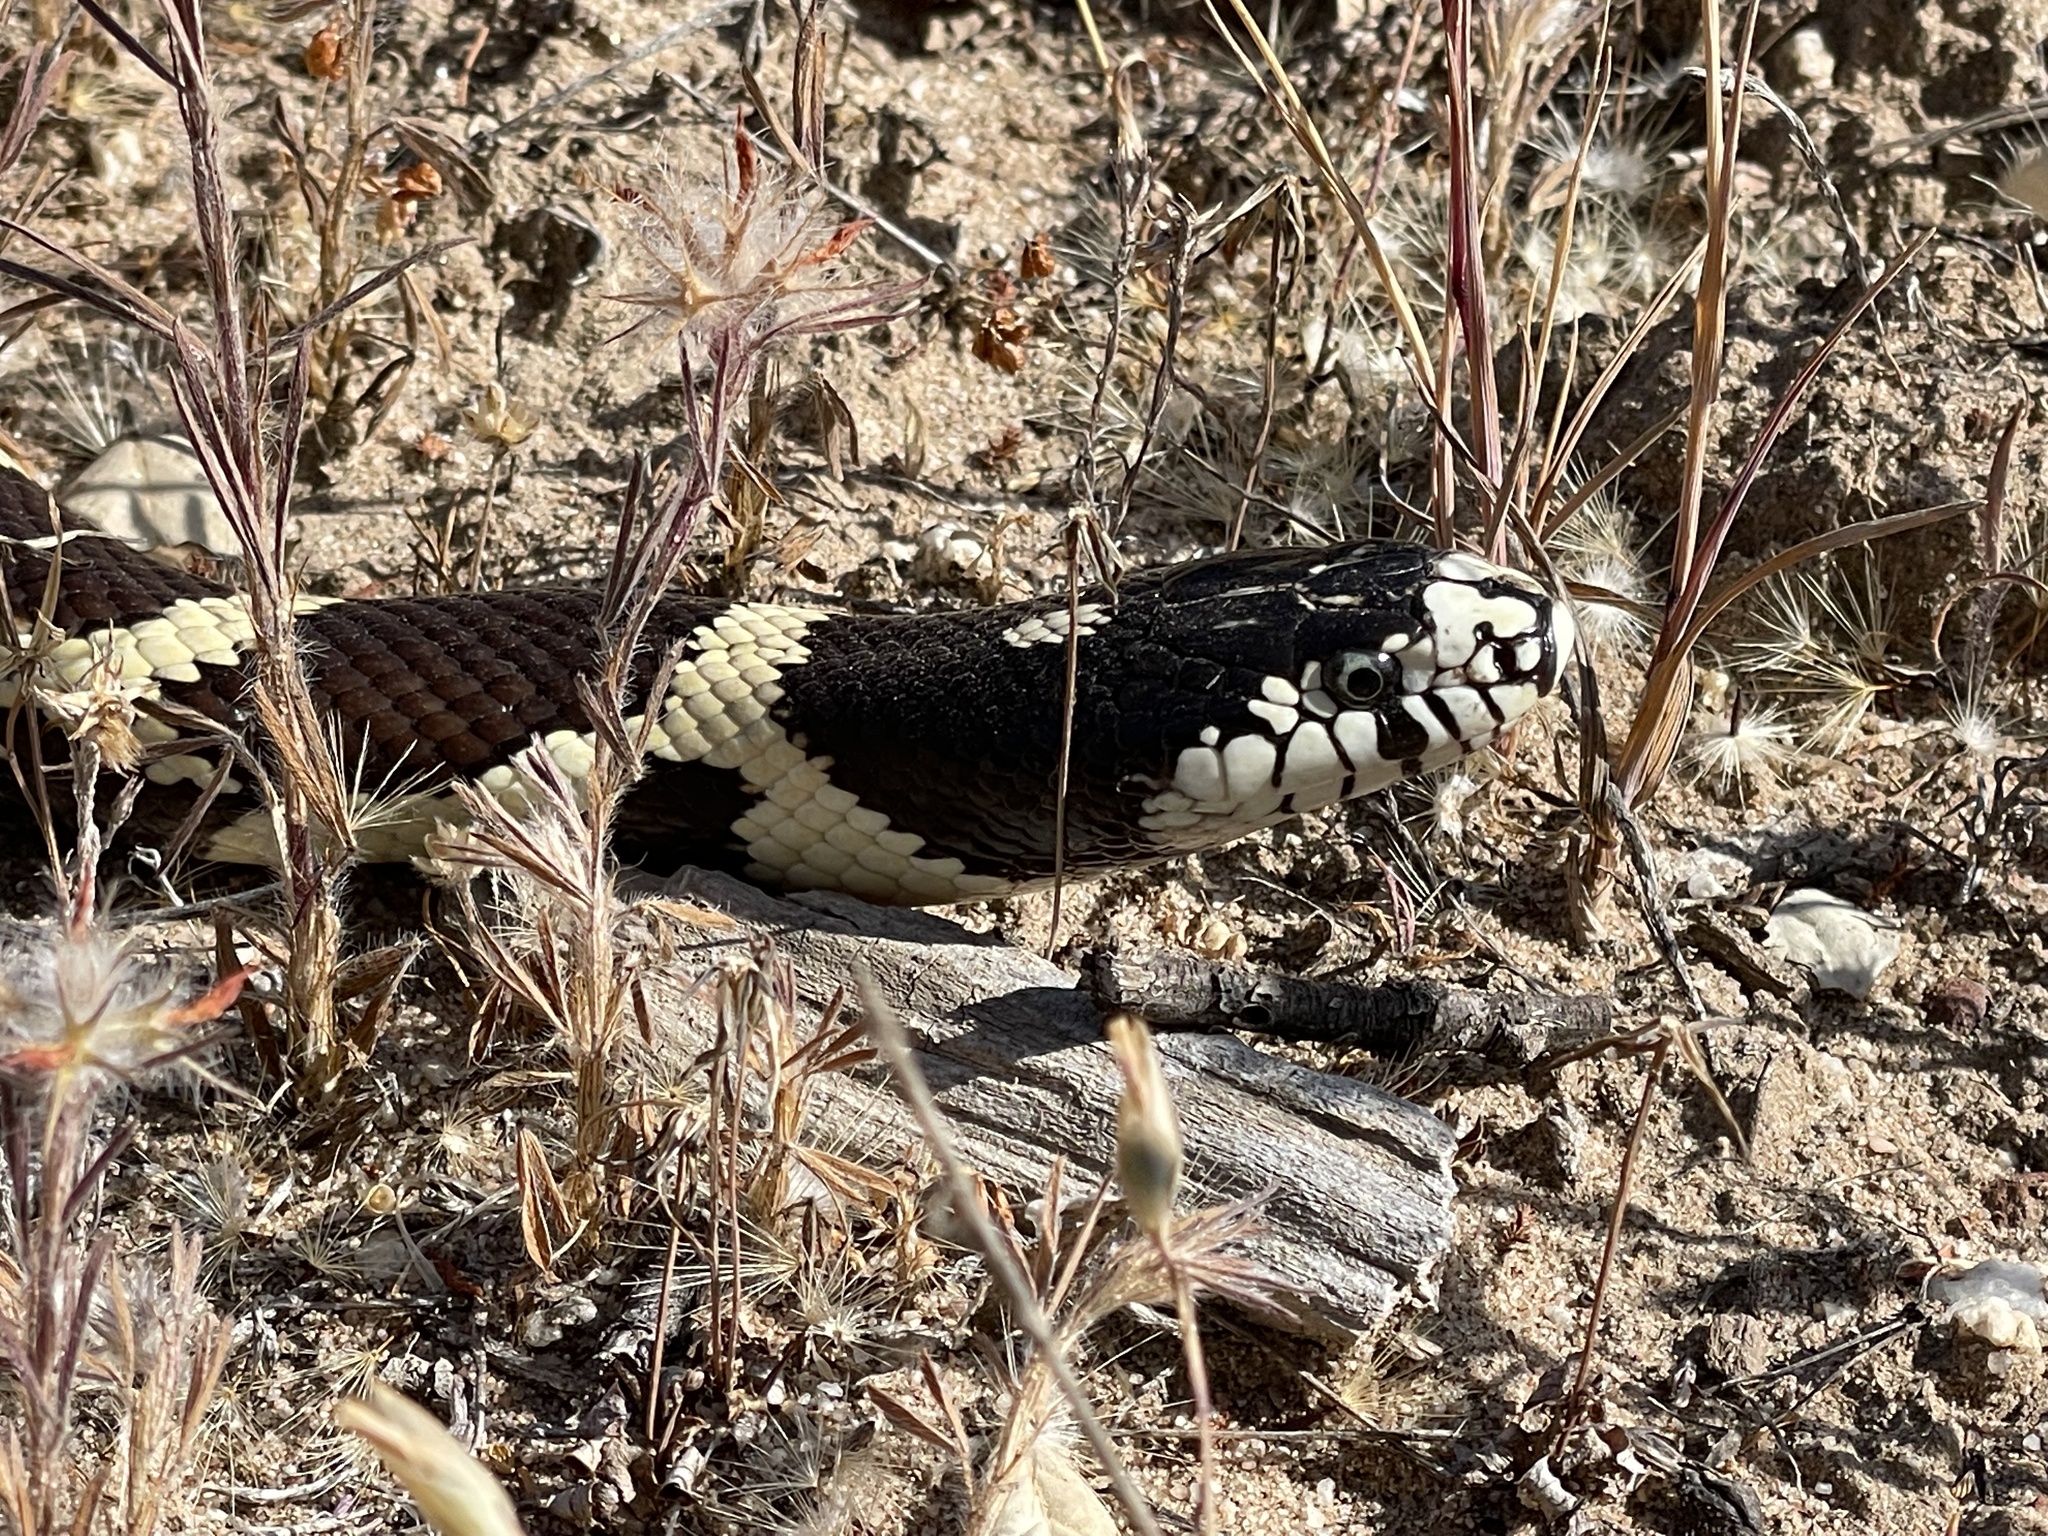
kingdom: Animalia
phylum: Chordata
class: Squamata
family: Colubridae
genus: Lampropeltis
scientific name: Lampropeltis californiae
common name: California kingsnake
